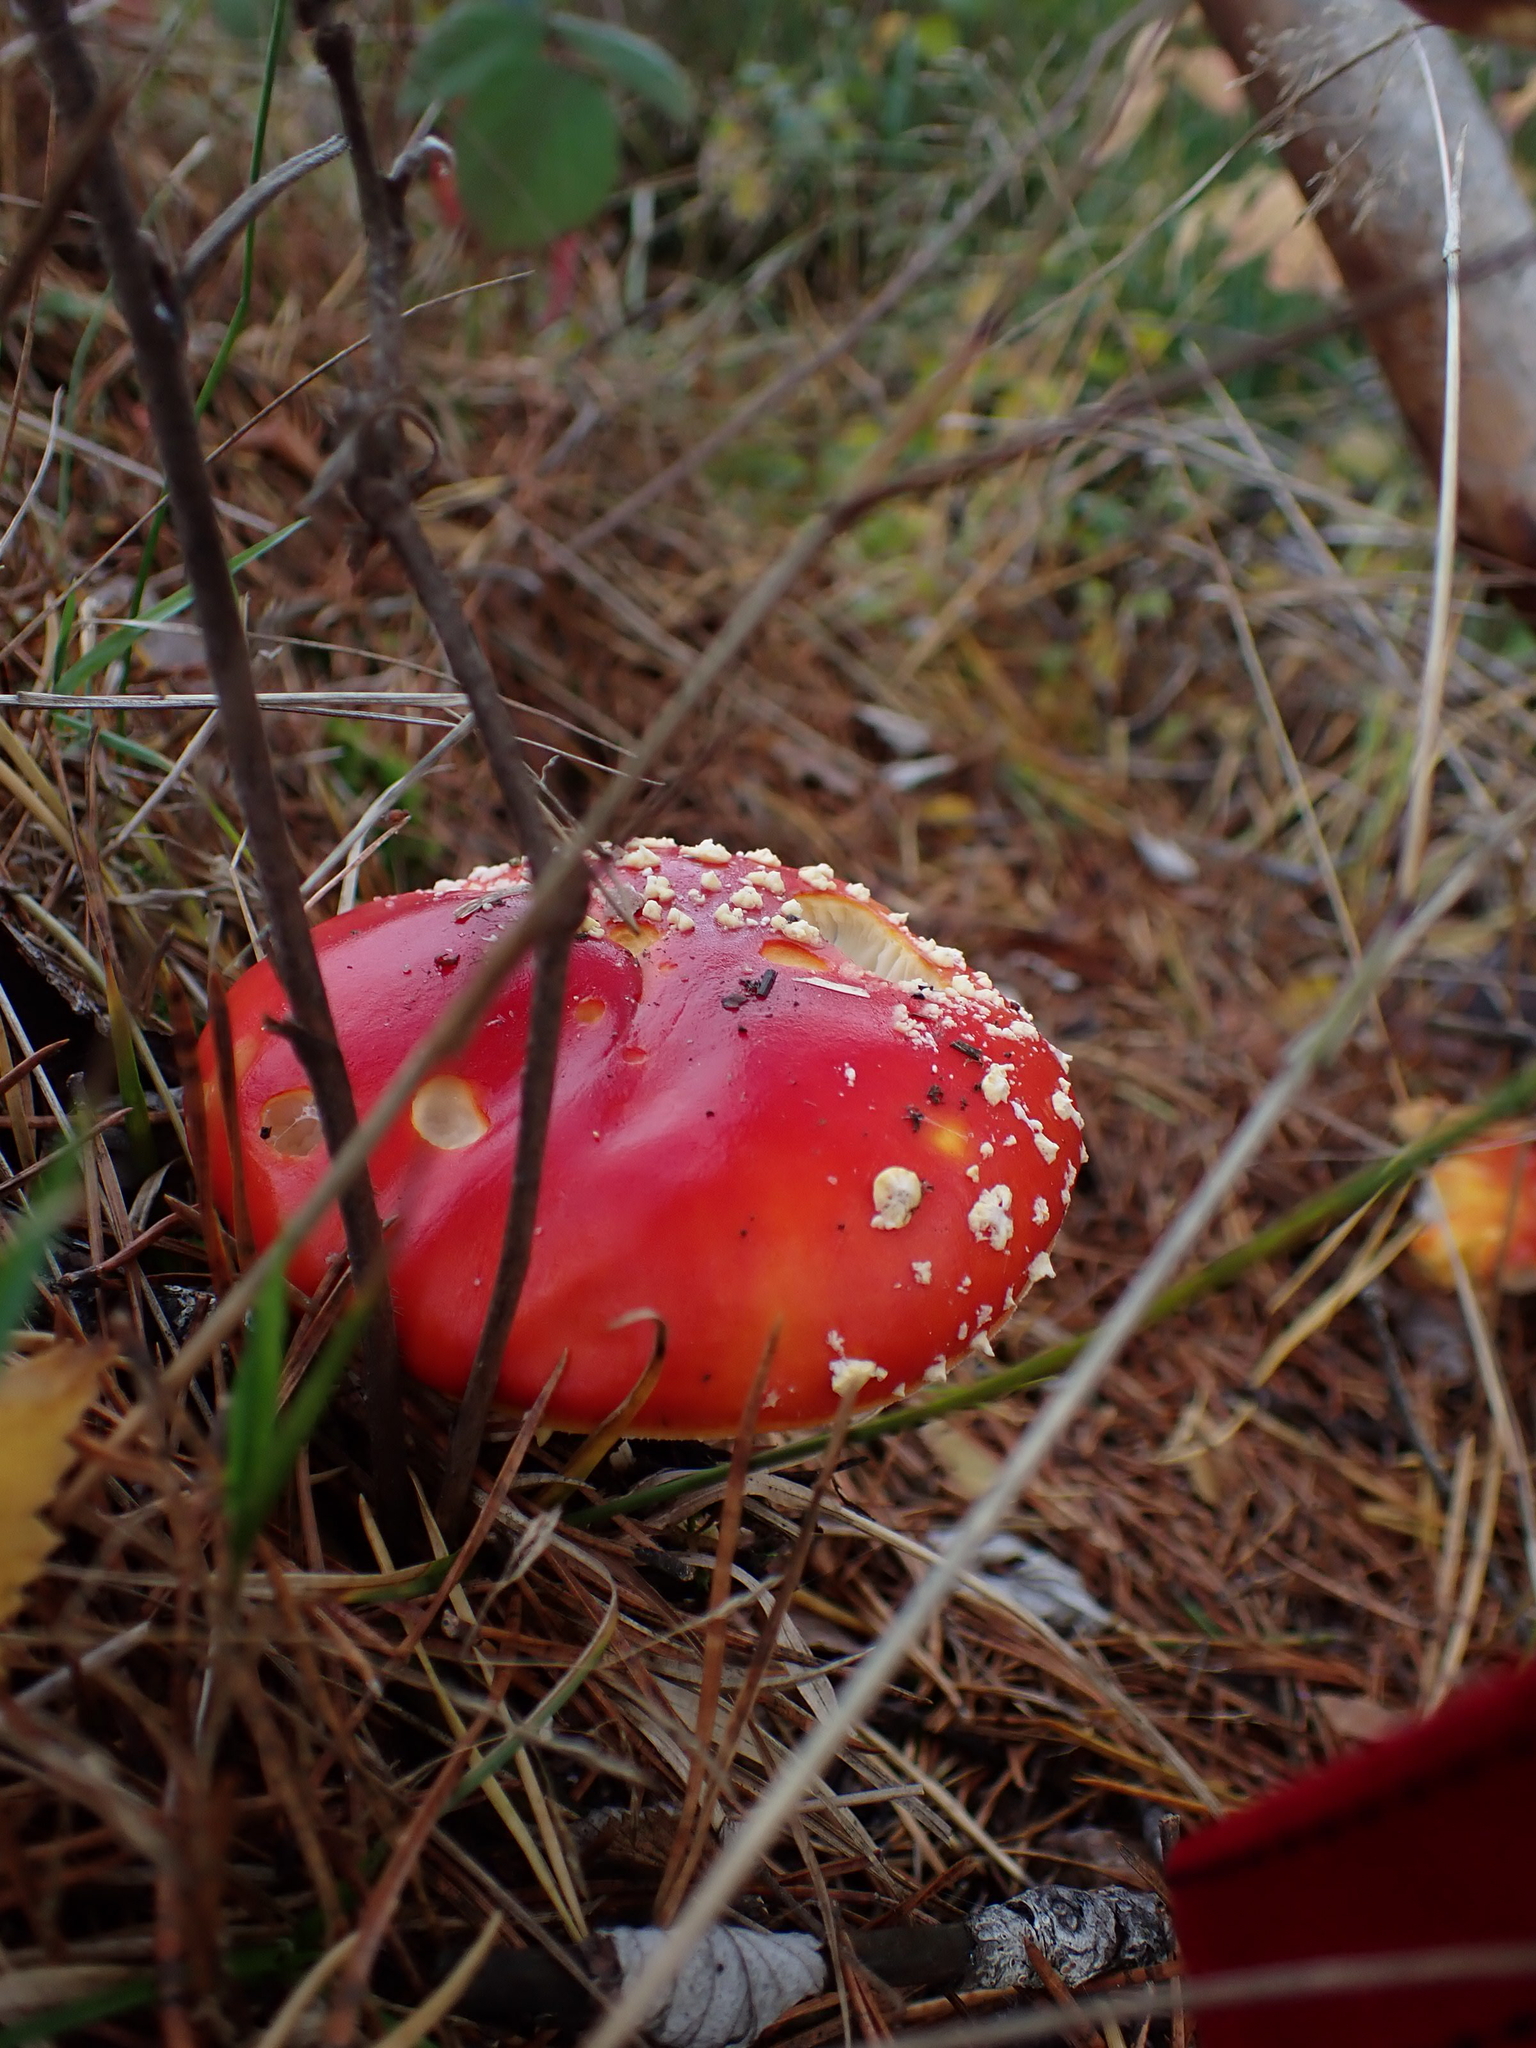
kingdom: Fungi
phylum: Basidiomycota
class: Agaricomycetes
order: Agaricales
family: Amanitaceae
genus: Amanita
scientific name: Amanita muscaria
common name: Fly agaric
